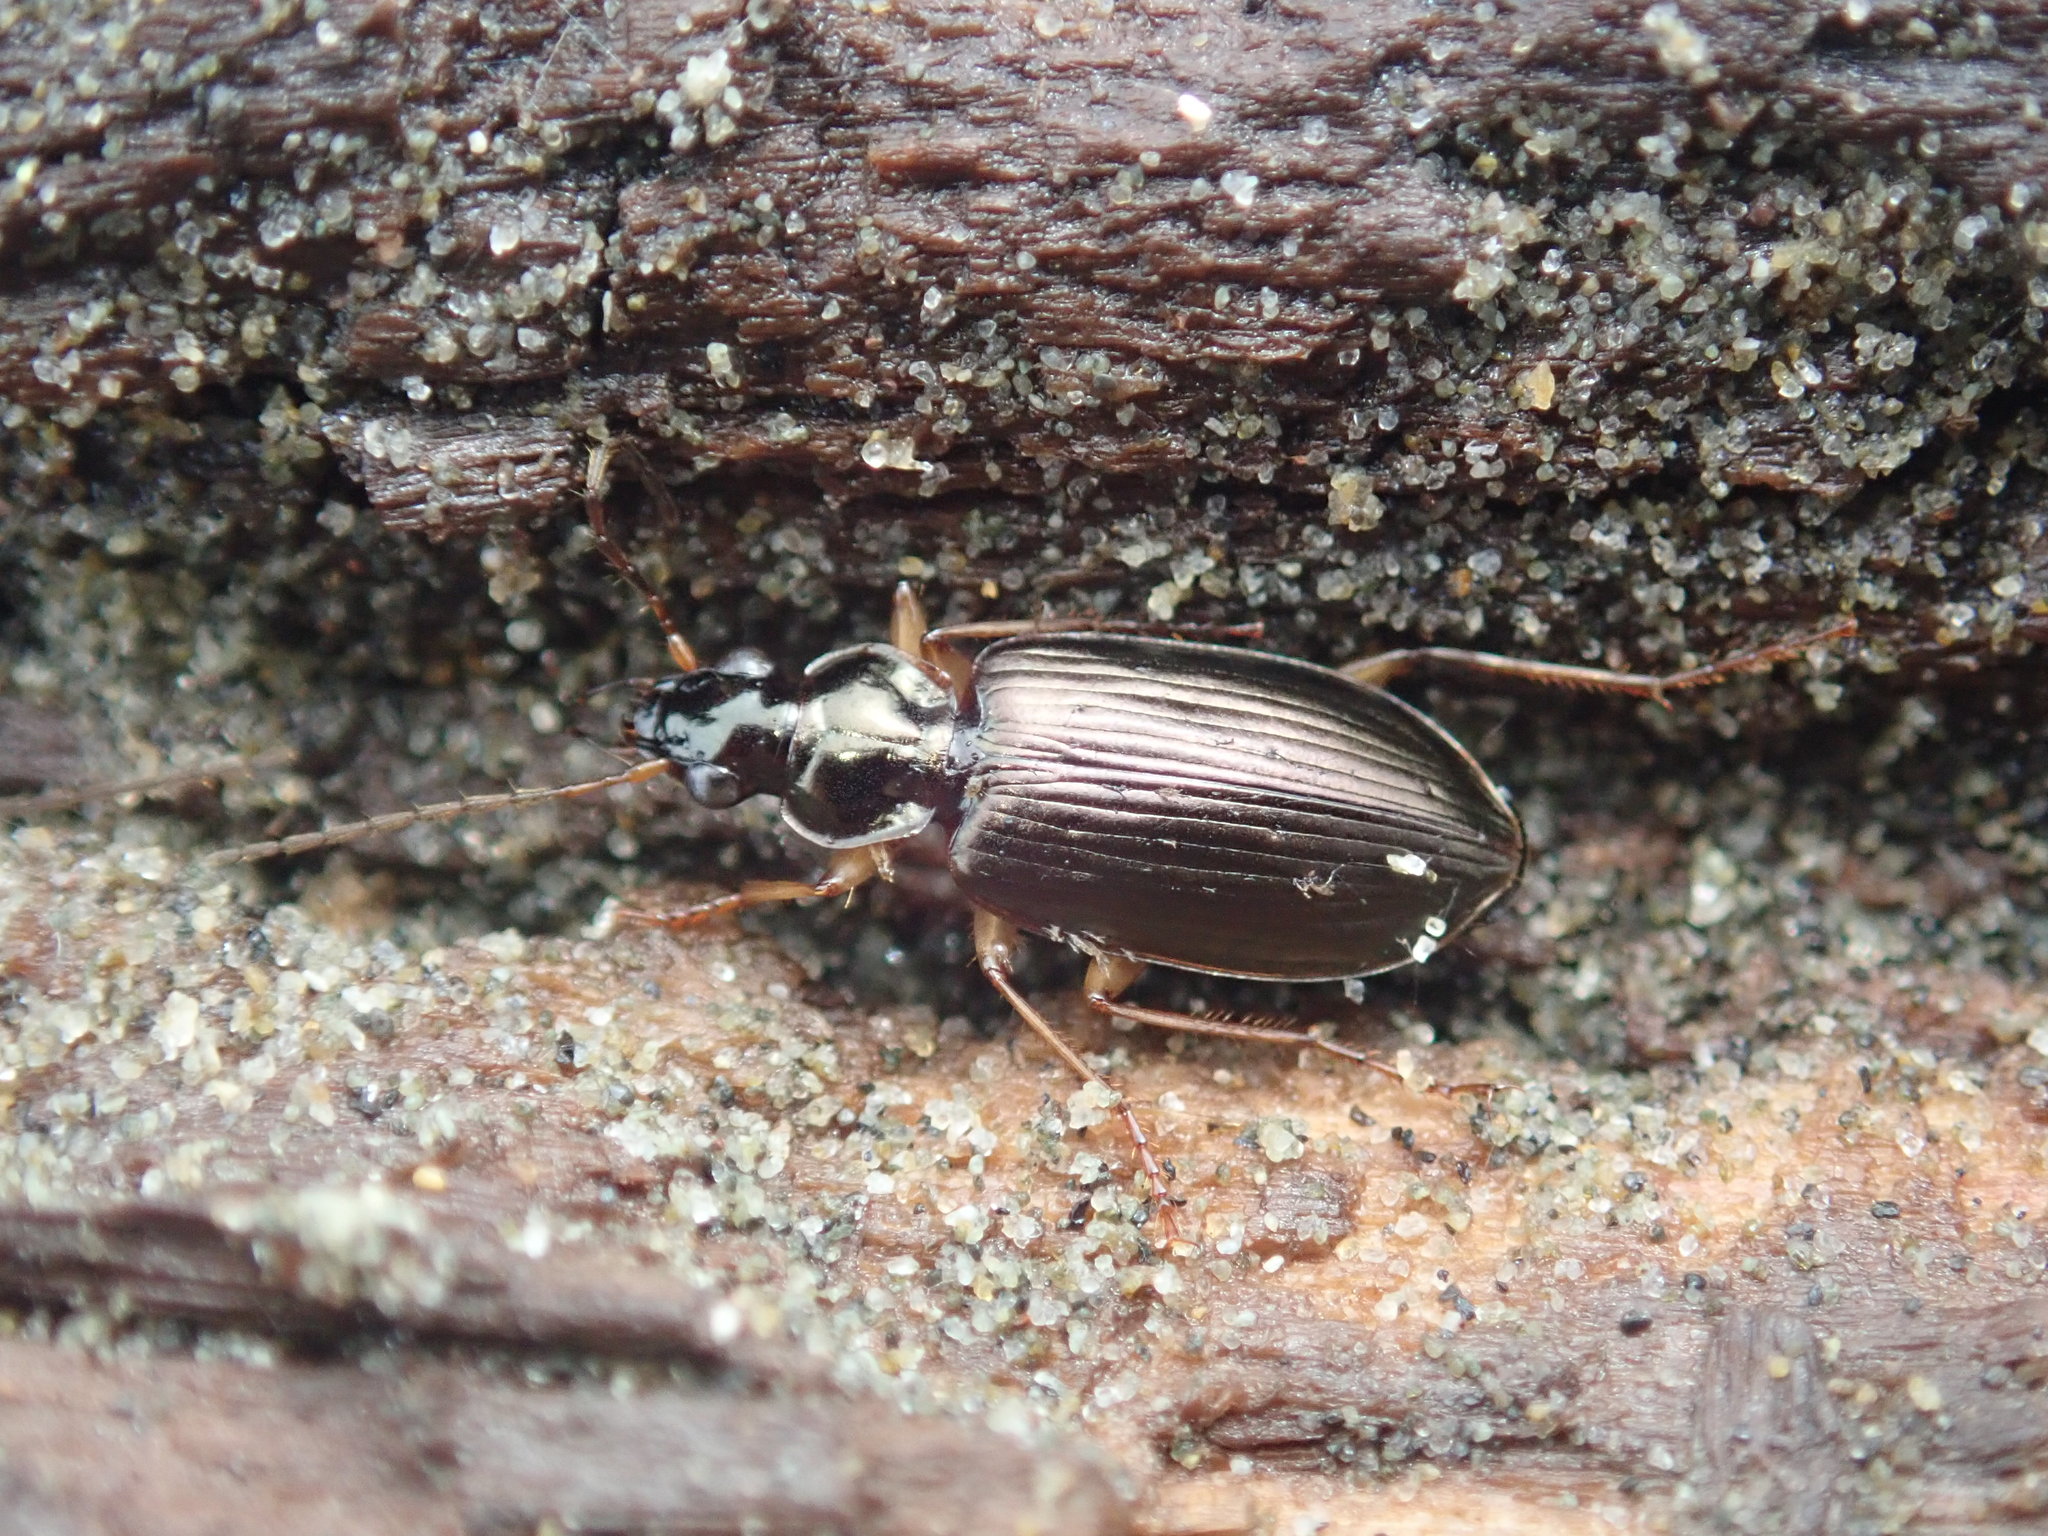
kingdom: Animalia
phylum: Arthropoda
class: Insecta
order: Coleoptera
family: Carabidae
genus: Notagonum
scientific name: Notagonum submetallicum
